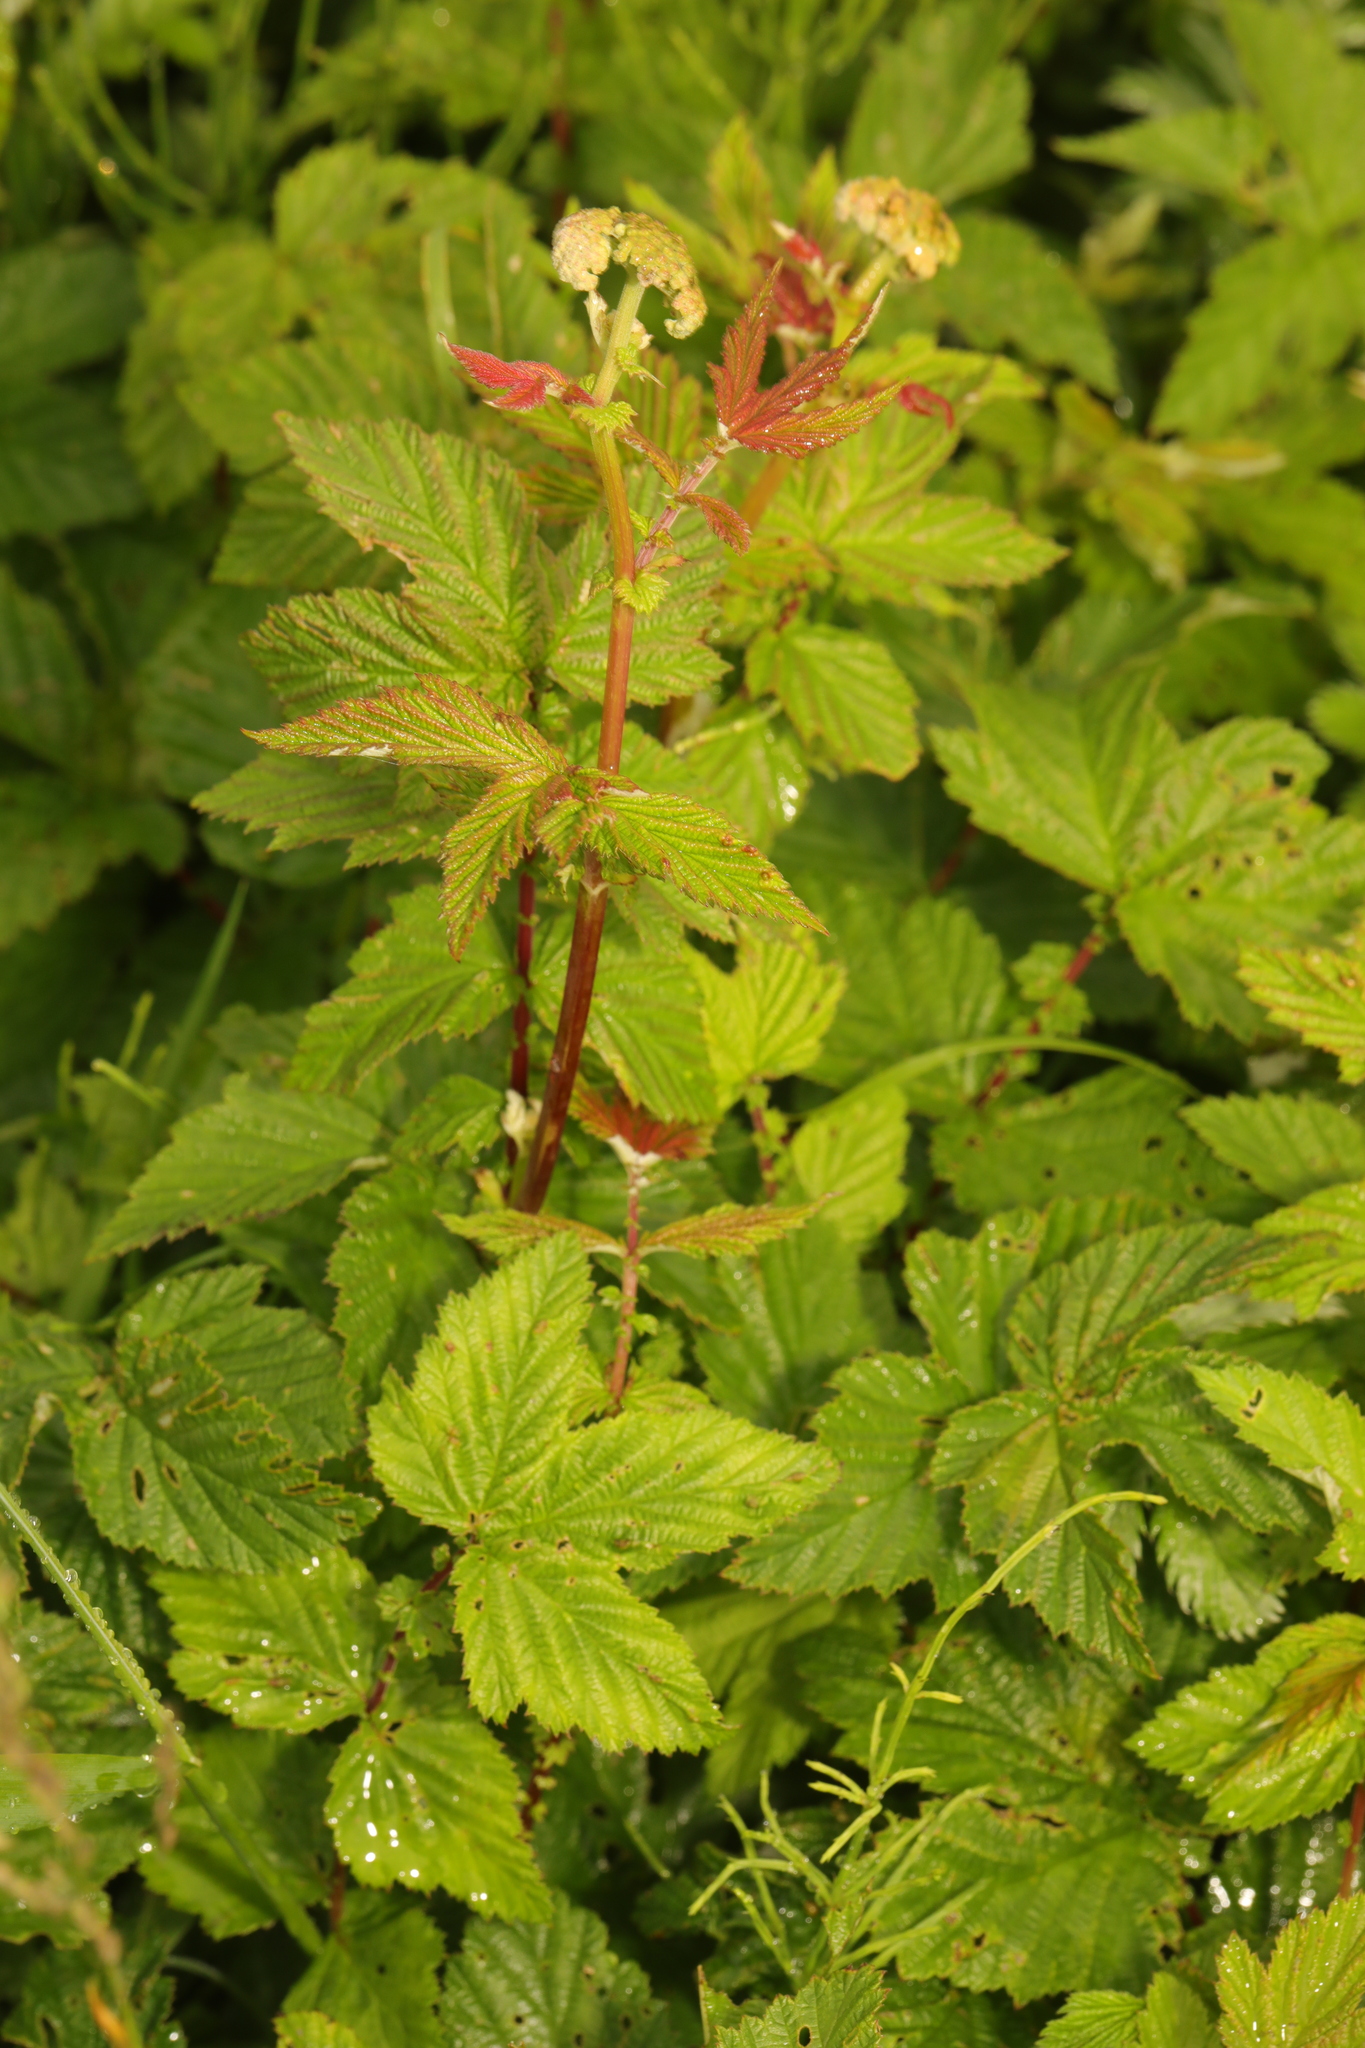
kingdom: Plantae
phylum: Tracheophyta
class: Magnoliopsida
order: Rosales
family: Rosaceae
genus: Filipendula
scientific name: Filipendula ulmaria
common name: Meadowsweet
